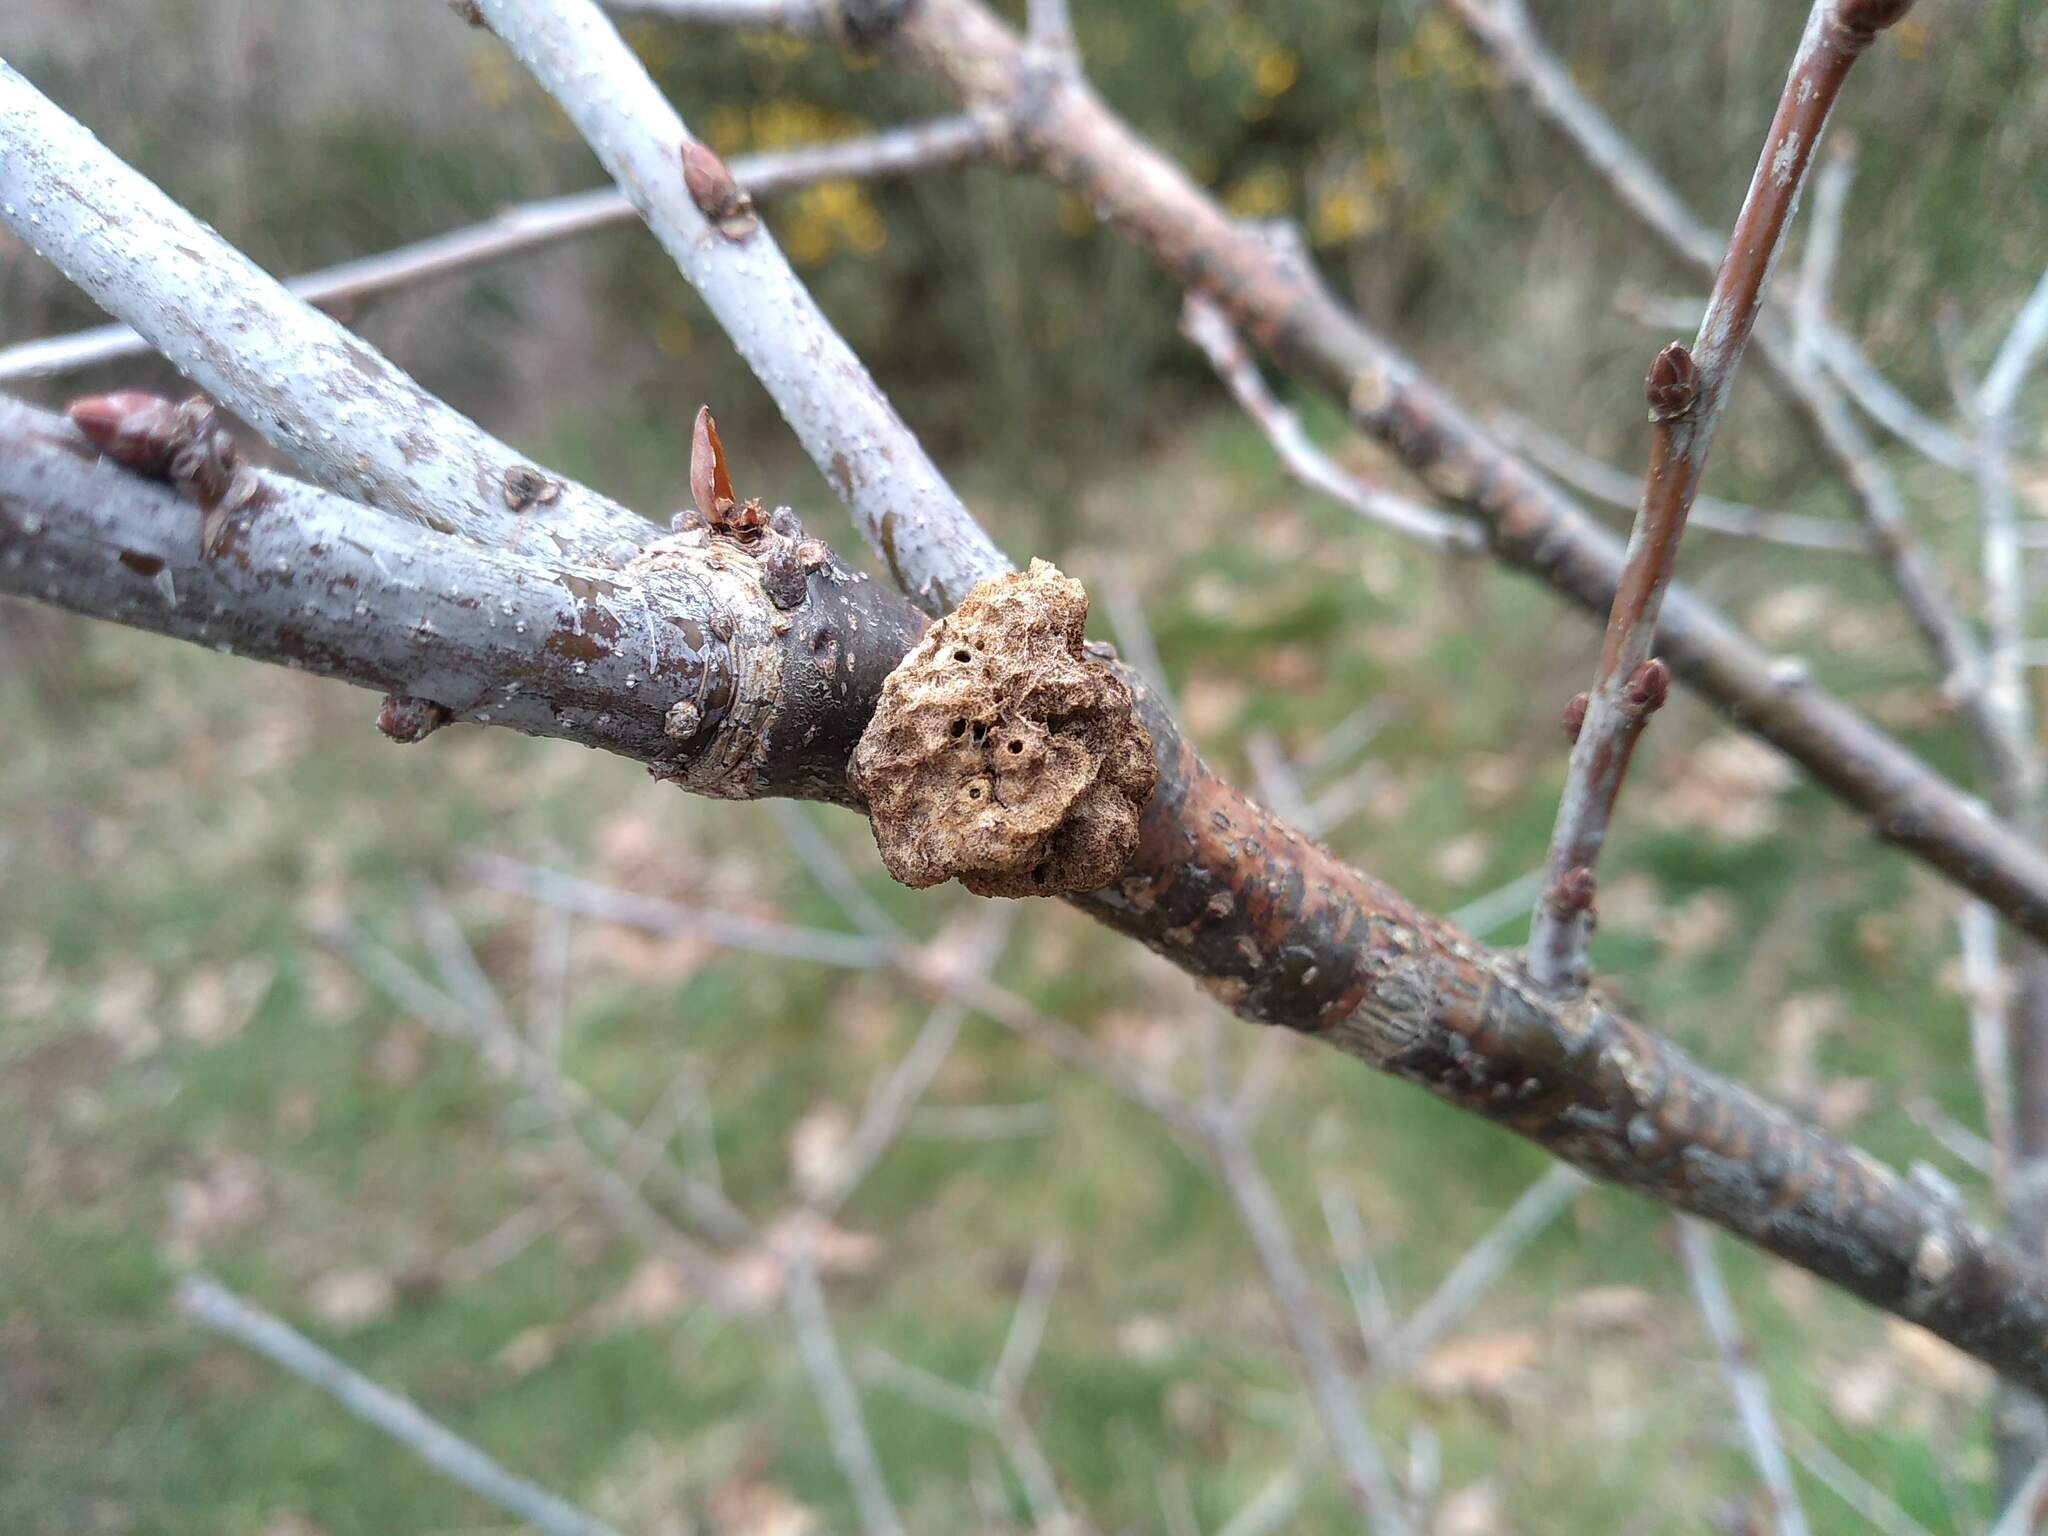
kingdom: Animalia
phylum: Arthropoda
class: Insecta
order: Hymenoptera
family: Cynipidae
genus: Biorhiza
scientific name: Biorhiza pallida
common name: Oak apple
